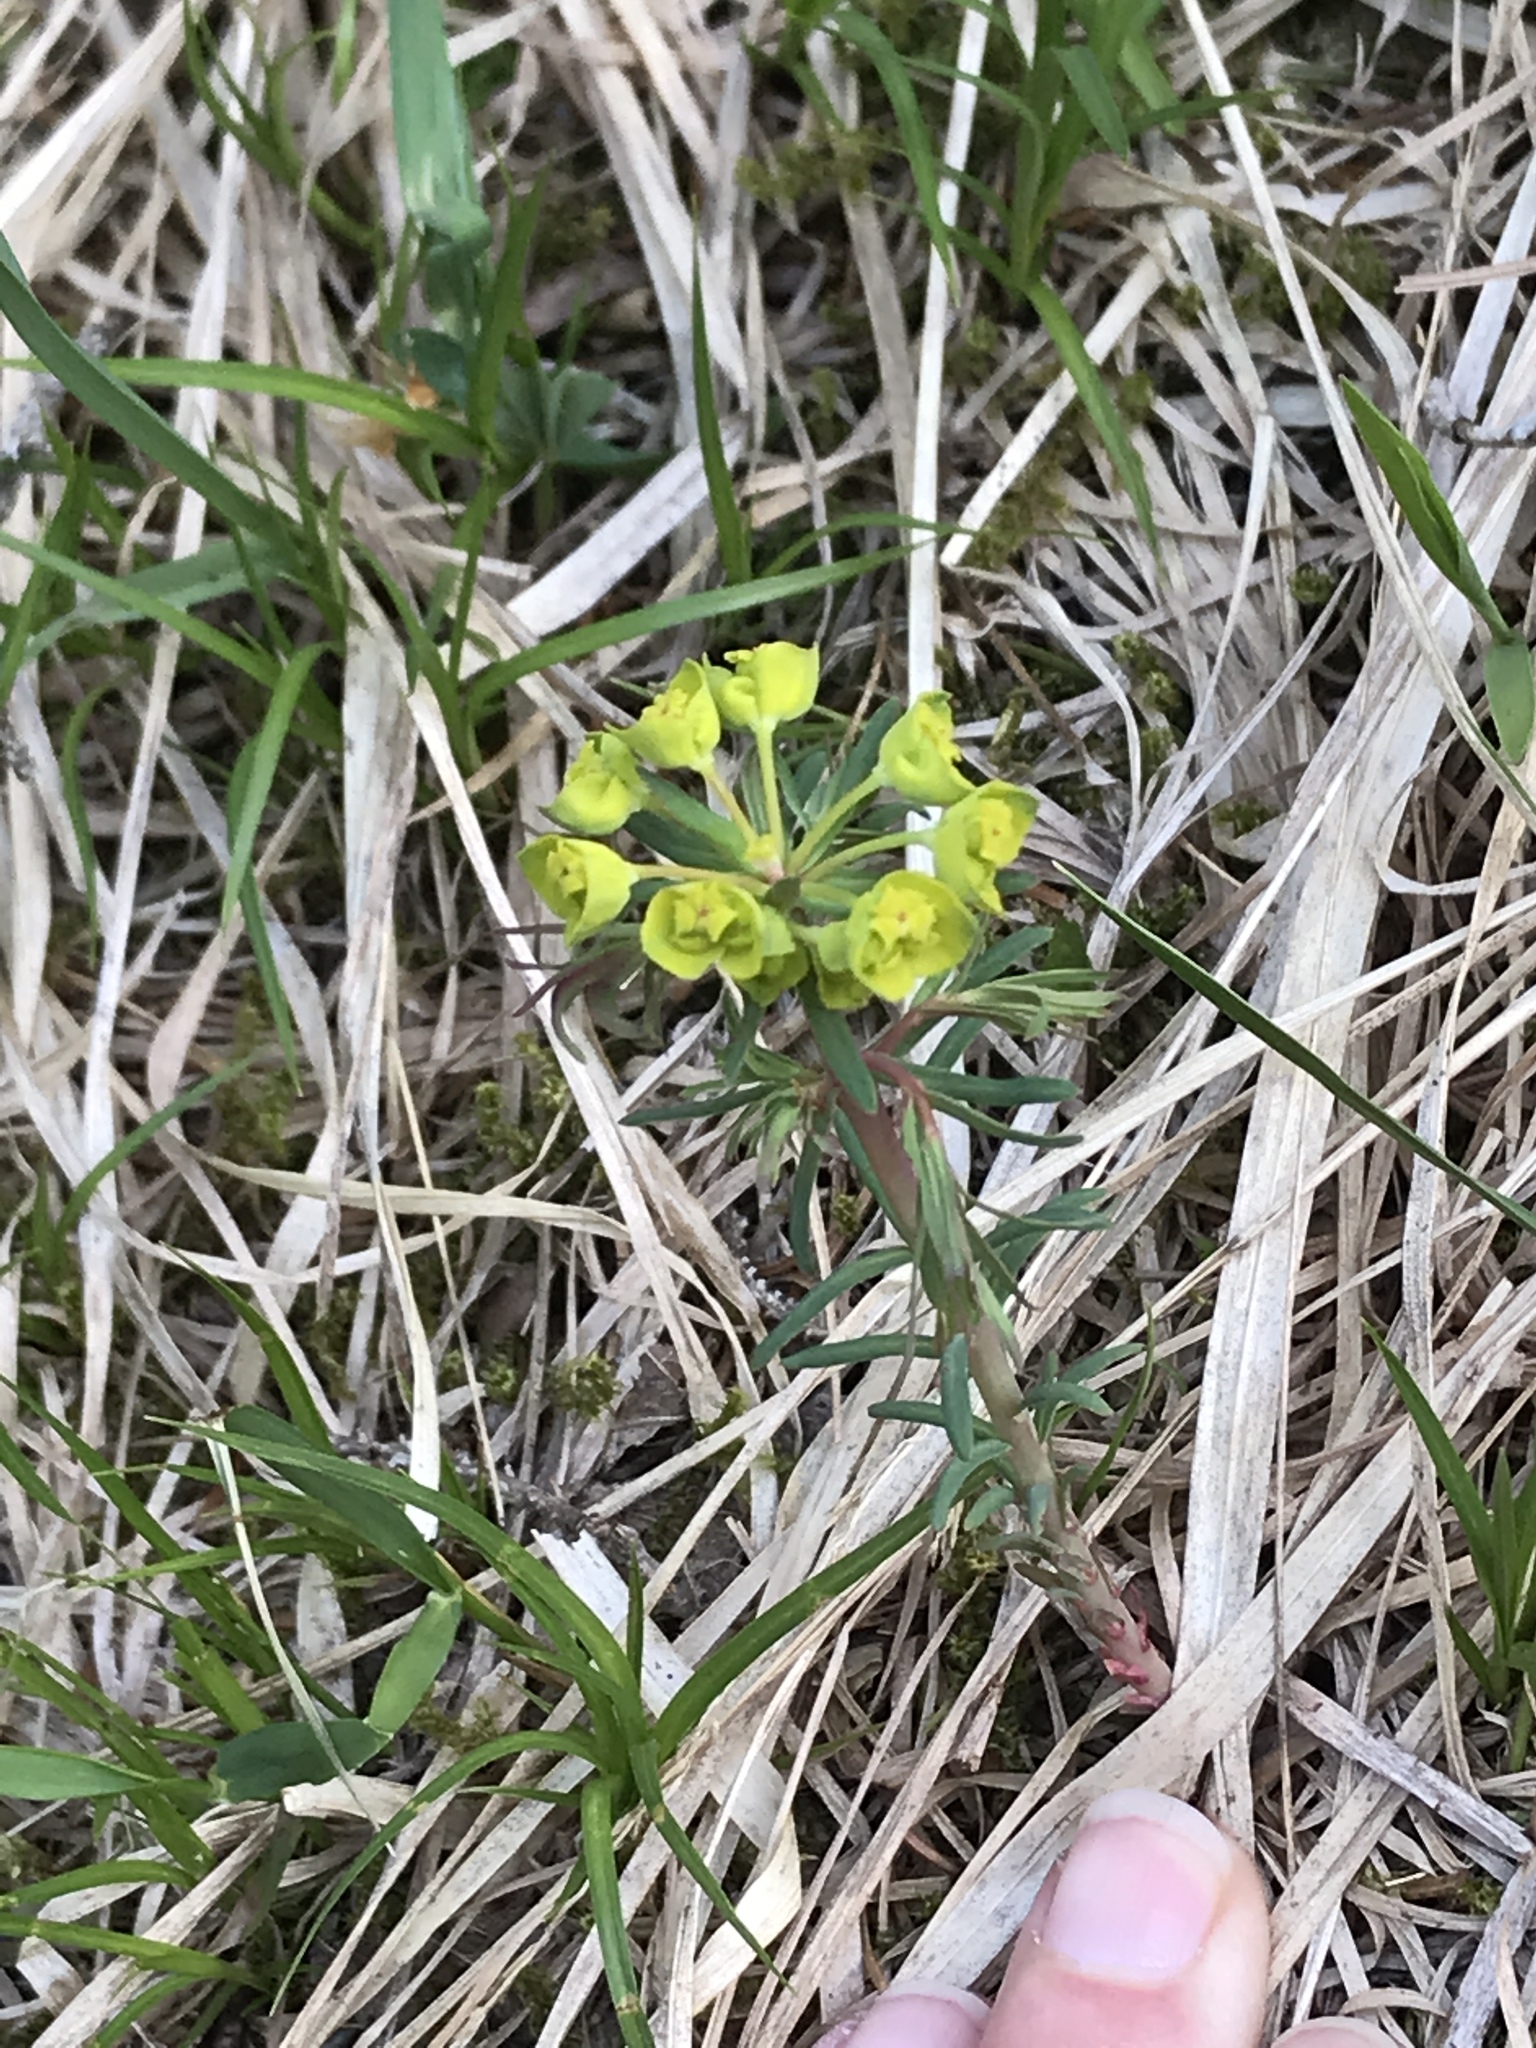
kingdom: Plantae
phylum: Tracheophyta
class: Magnoliopsida
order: Malpighiales
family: Euphorbiaceae
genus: Euphorbia
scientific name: Euphorbia cyparissias
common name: Cypress spurge
